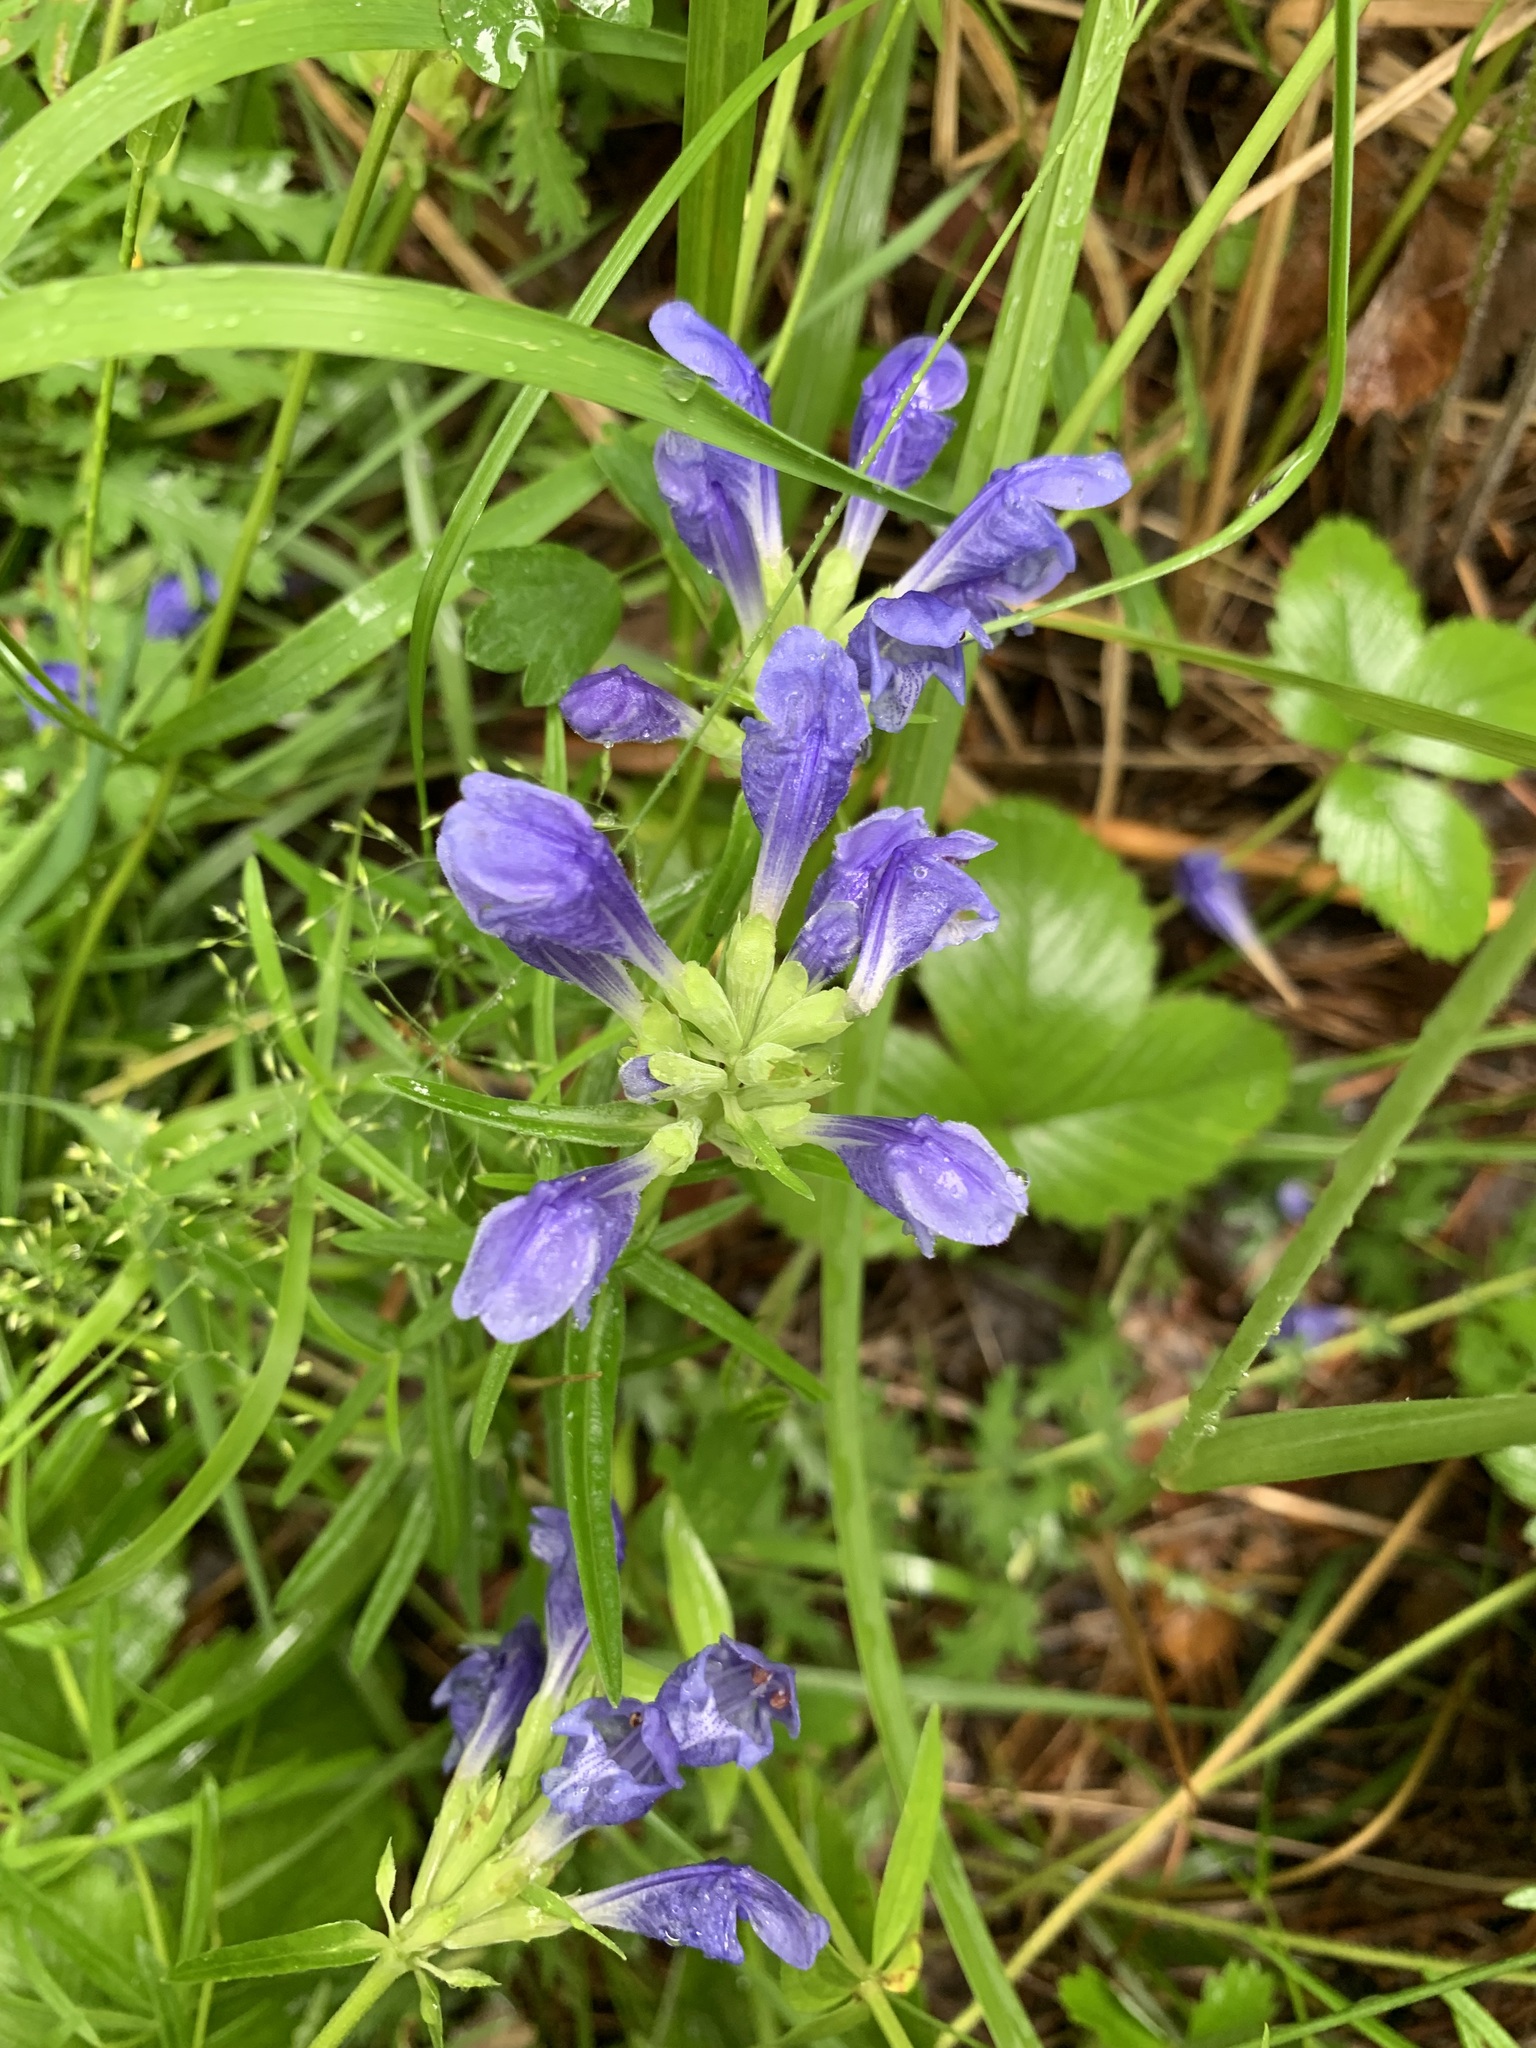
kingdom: Plantae
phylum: Tracheophyta
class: Magnoliopsida
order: Lamiales
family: Lamiaceae
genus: Dracocephalum
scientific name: Dracocephalum ruyschiana
